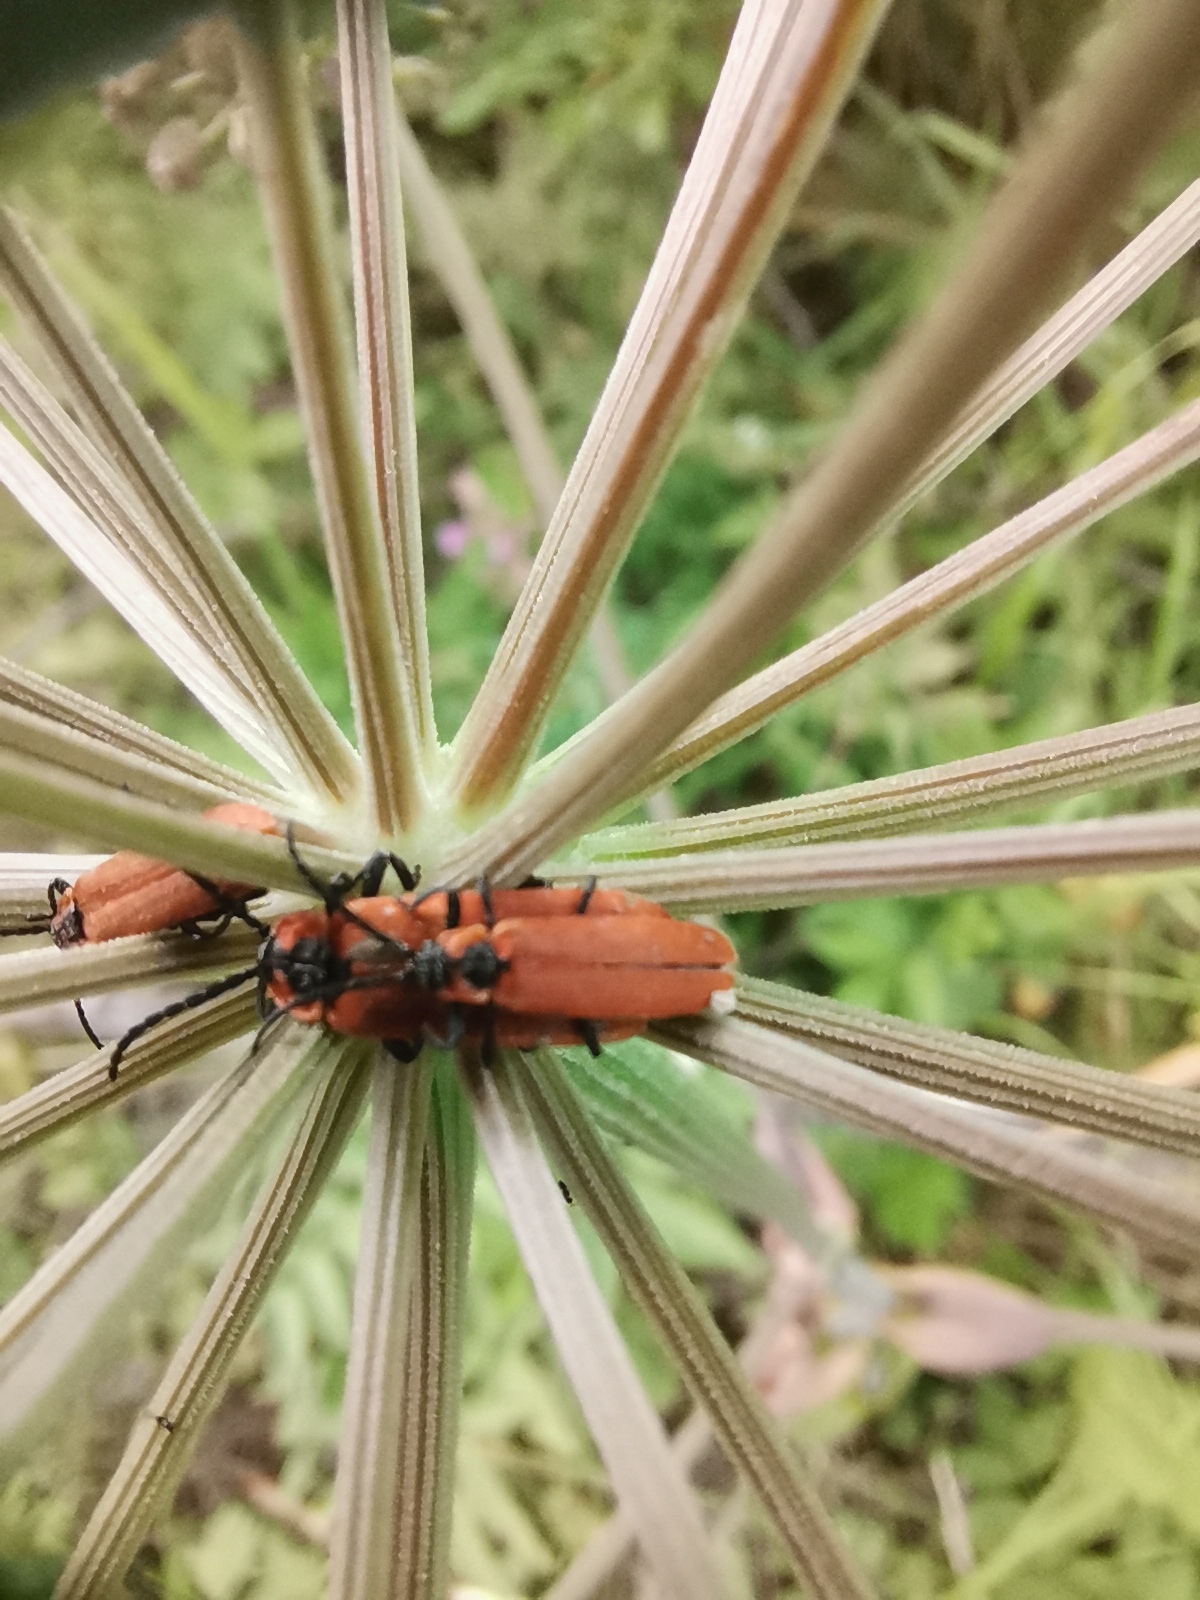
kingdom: Animalia
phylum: Arthropoda
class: Insecta
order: Coleoptera
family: Lycidae
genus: Lygistopterus
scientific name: Lygistopterus sanguineus
